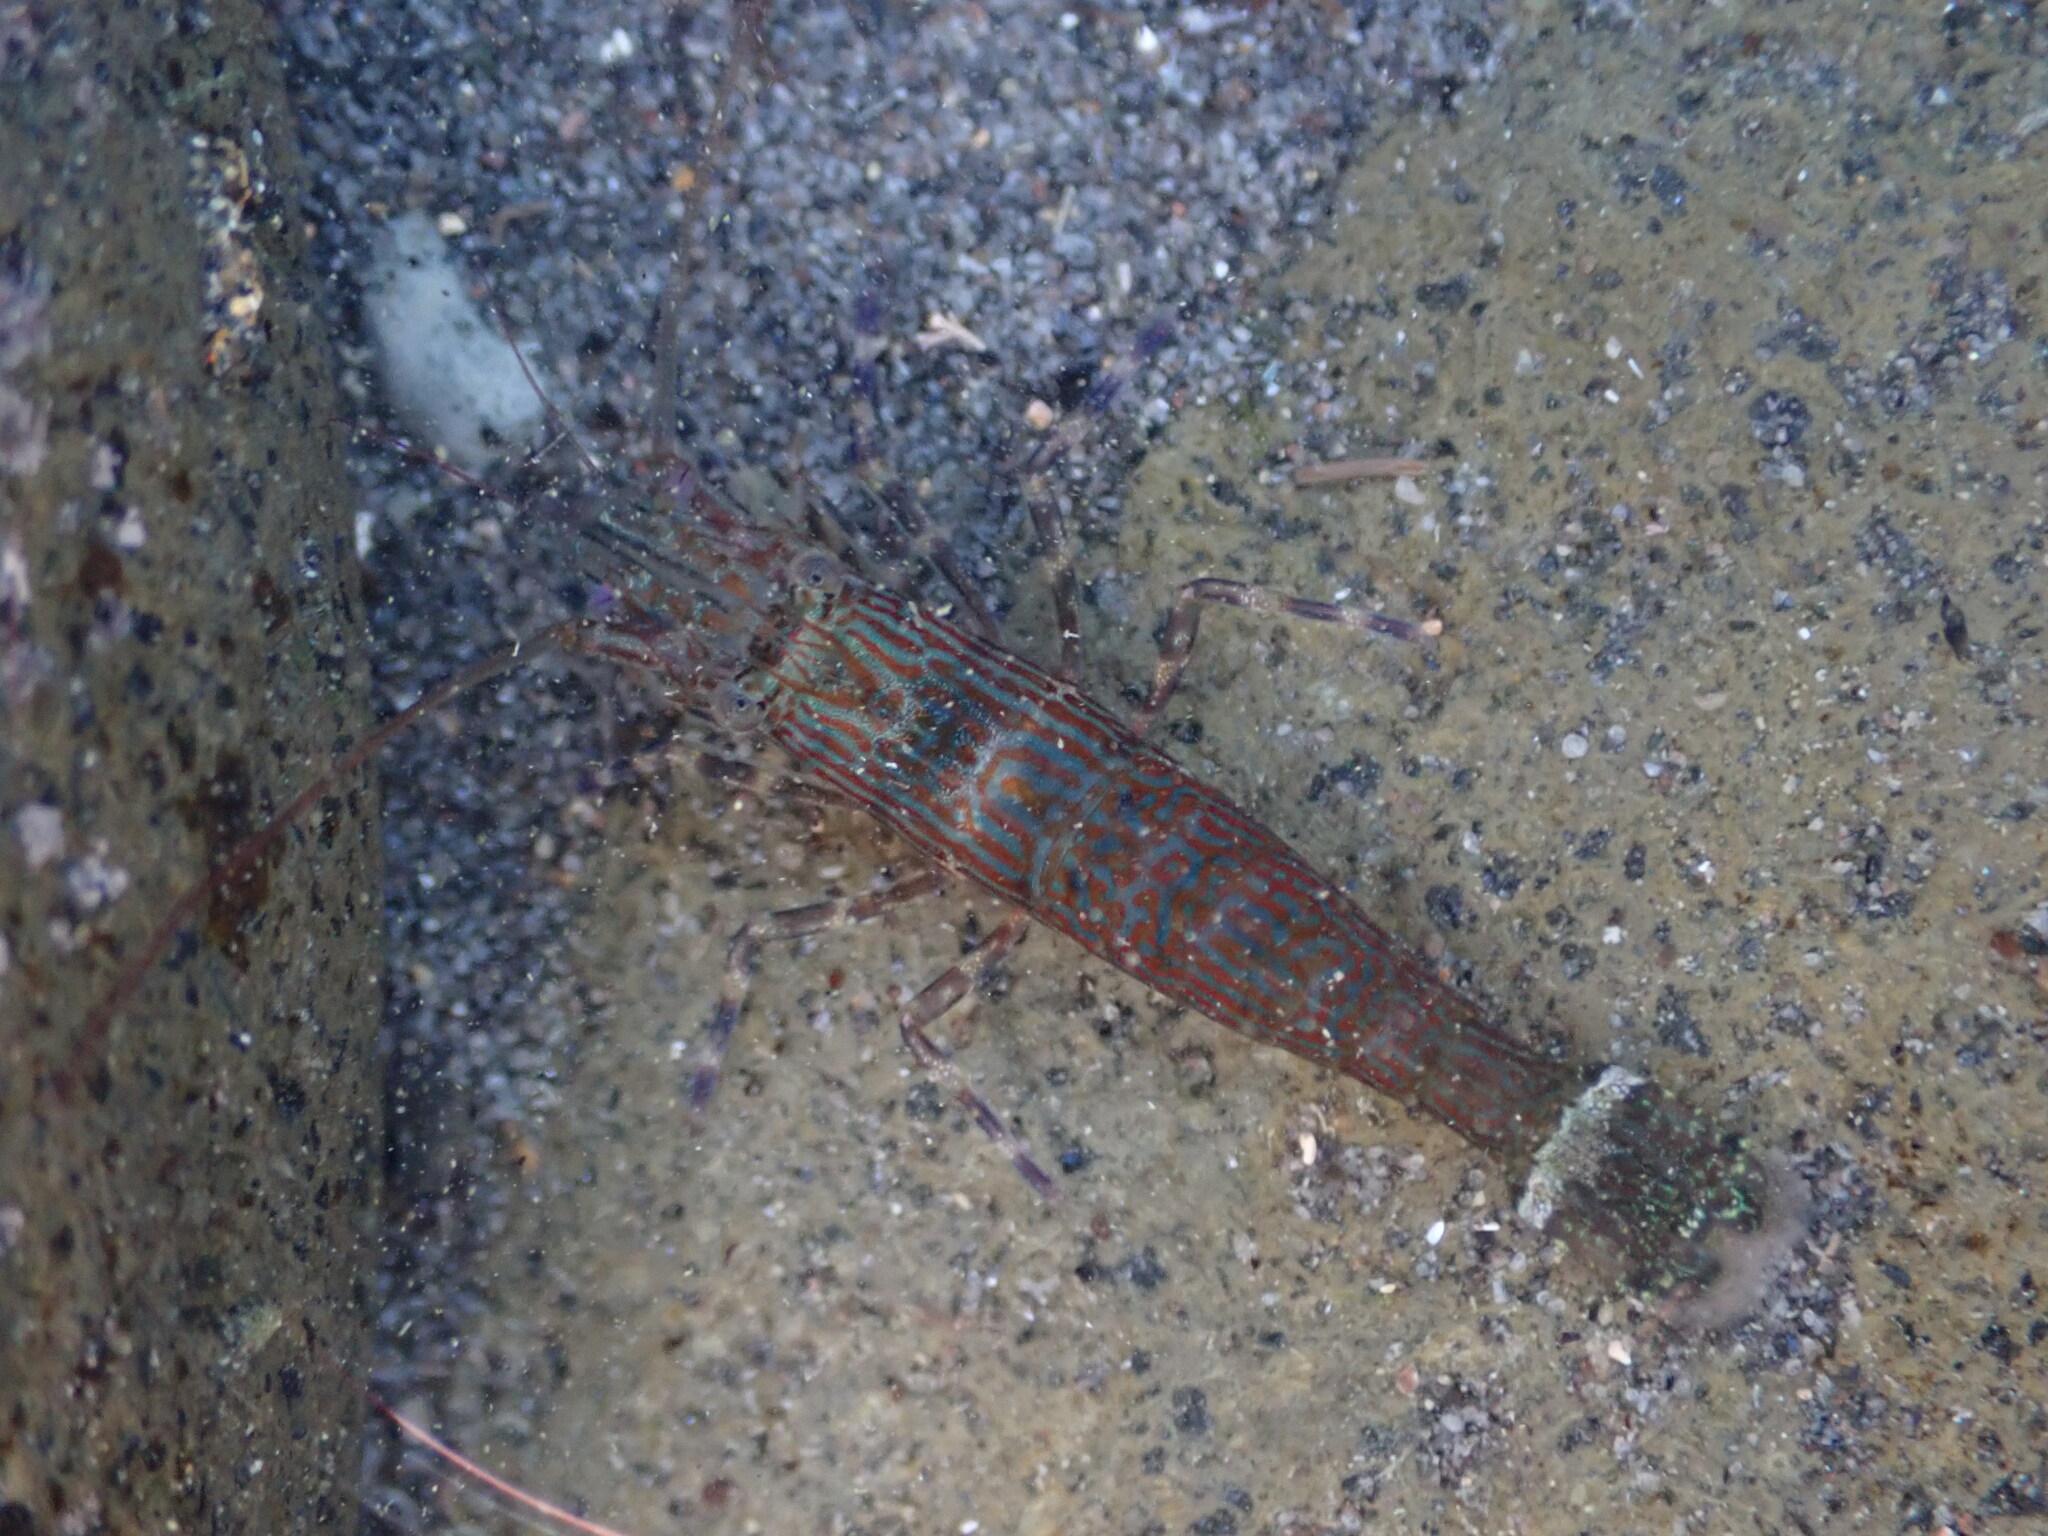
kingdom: Animalia
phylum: Arthropoda
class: Malacostraca
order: Decapoda
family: Hippolytidae
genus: Alope
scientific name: Alope spinifrons
